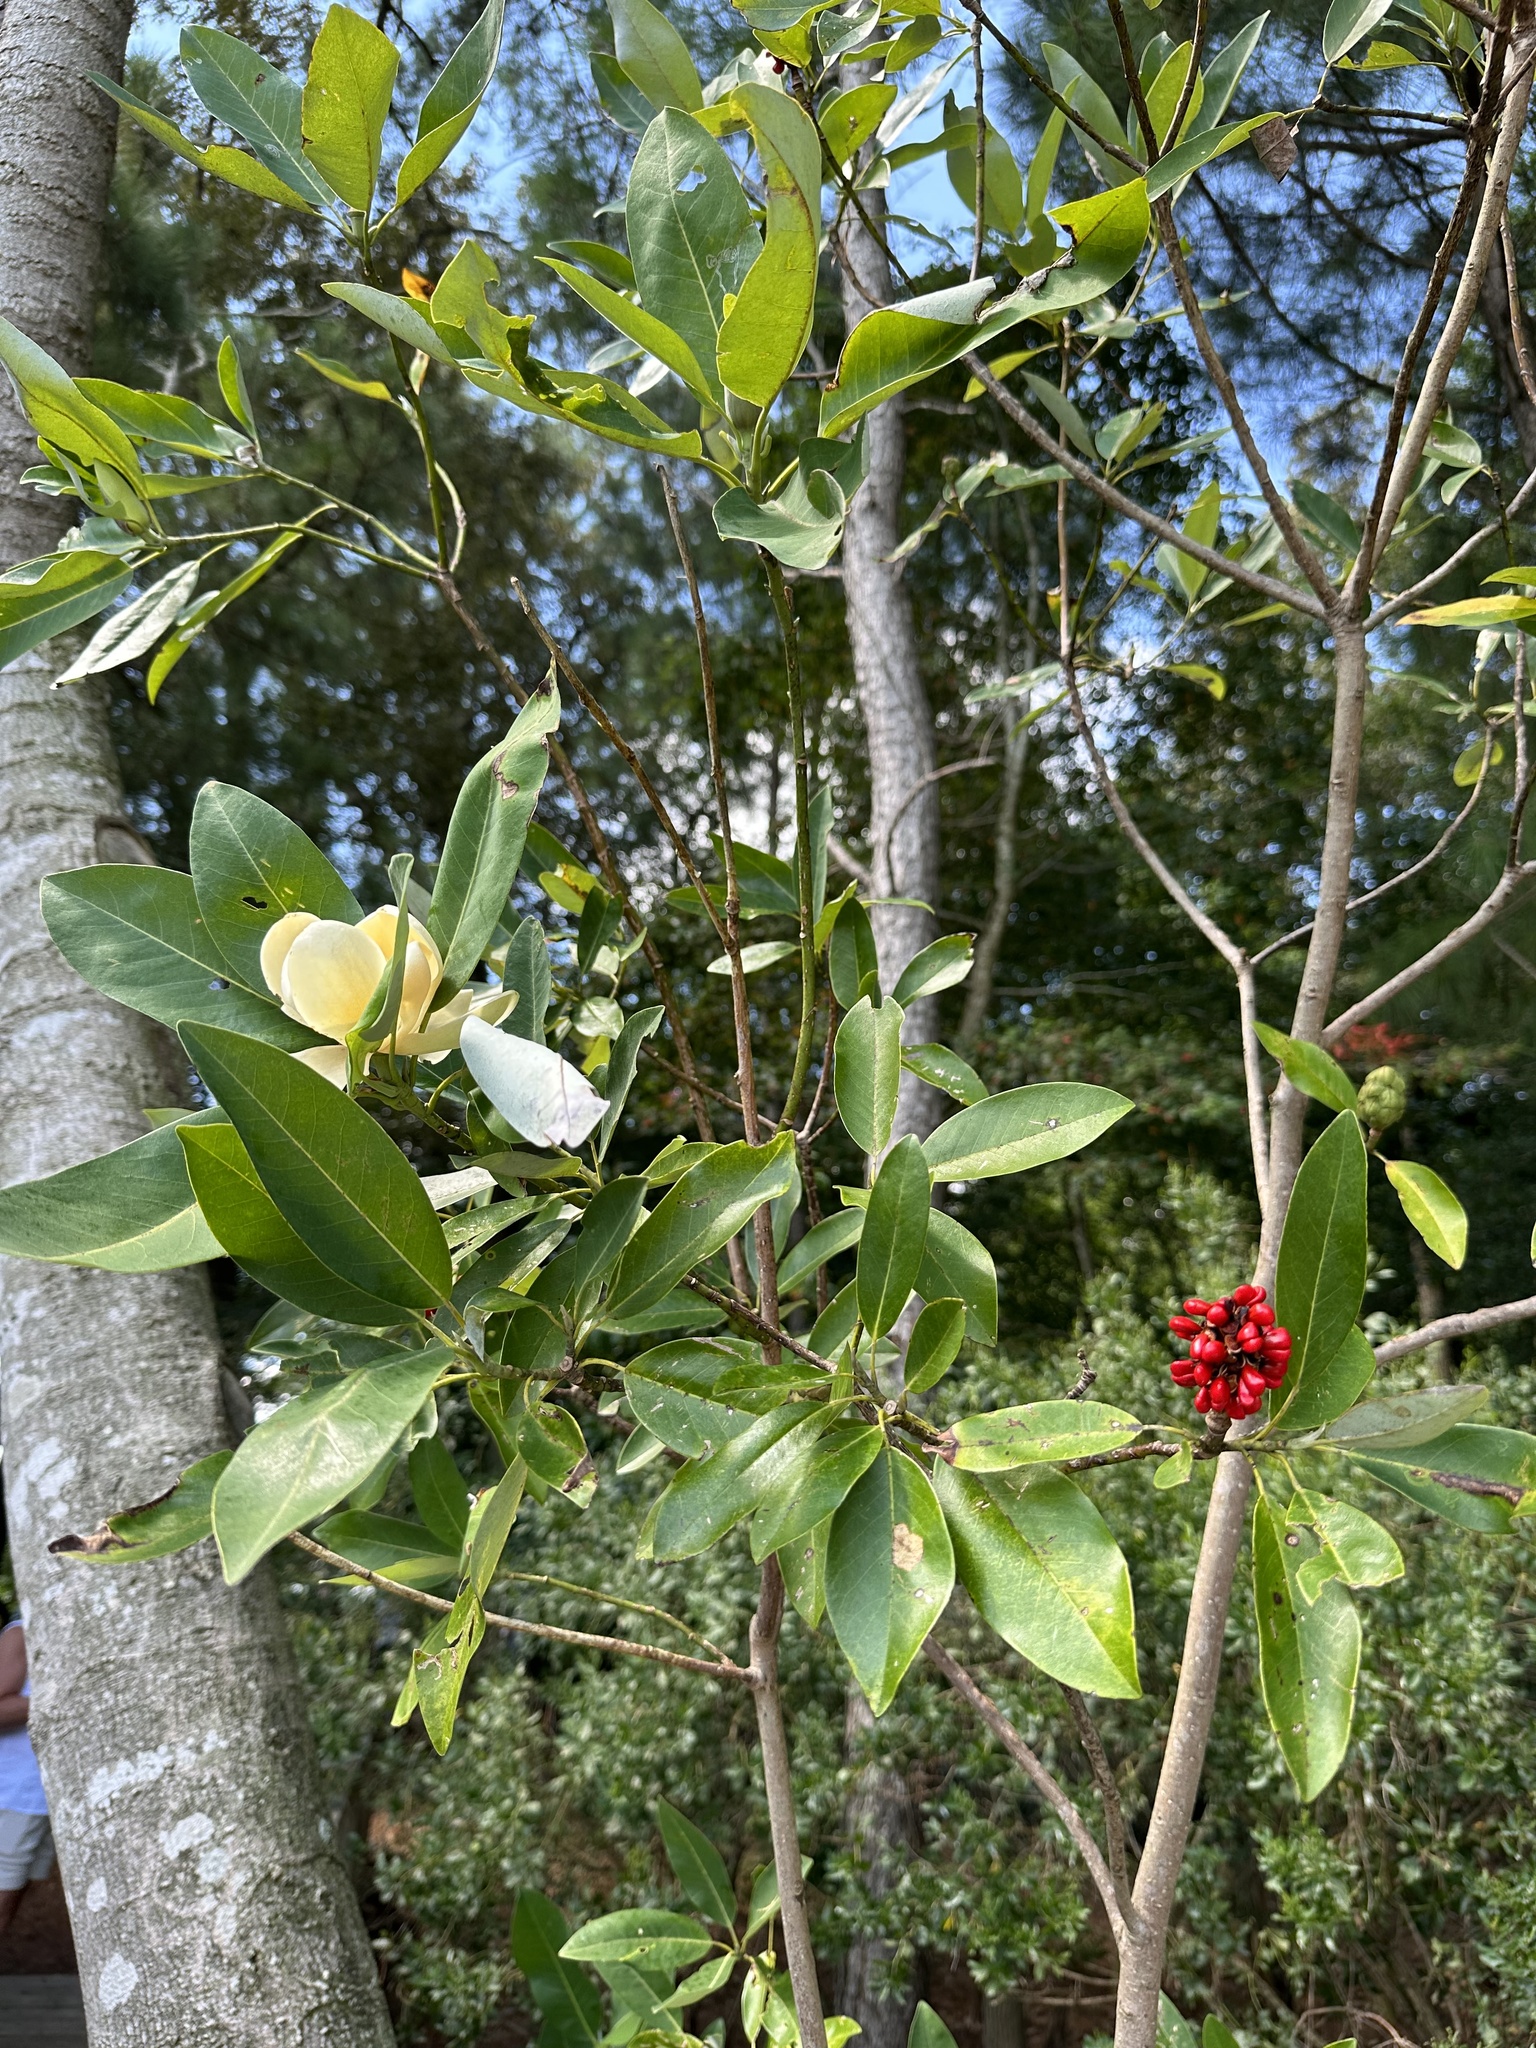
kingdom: Plantae
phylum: Tracheophyta
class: Magnoliopsida
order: Magnoliales
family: Magnoliaceae
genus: Magnolia
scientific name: Magnolia virginiana
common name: Swamp bay
